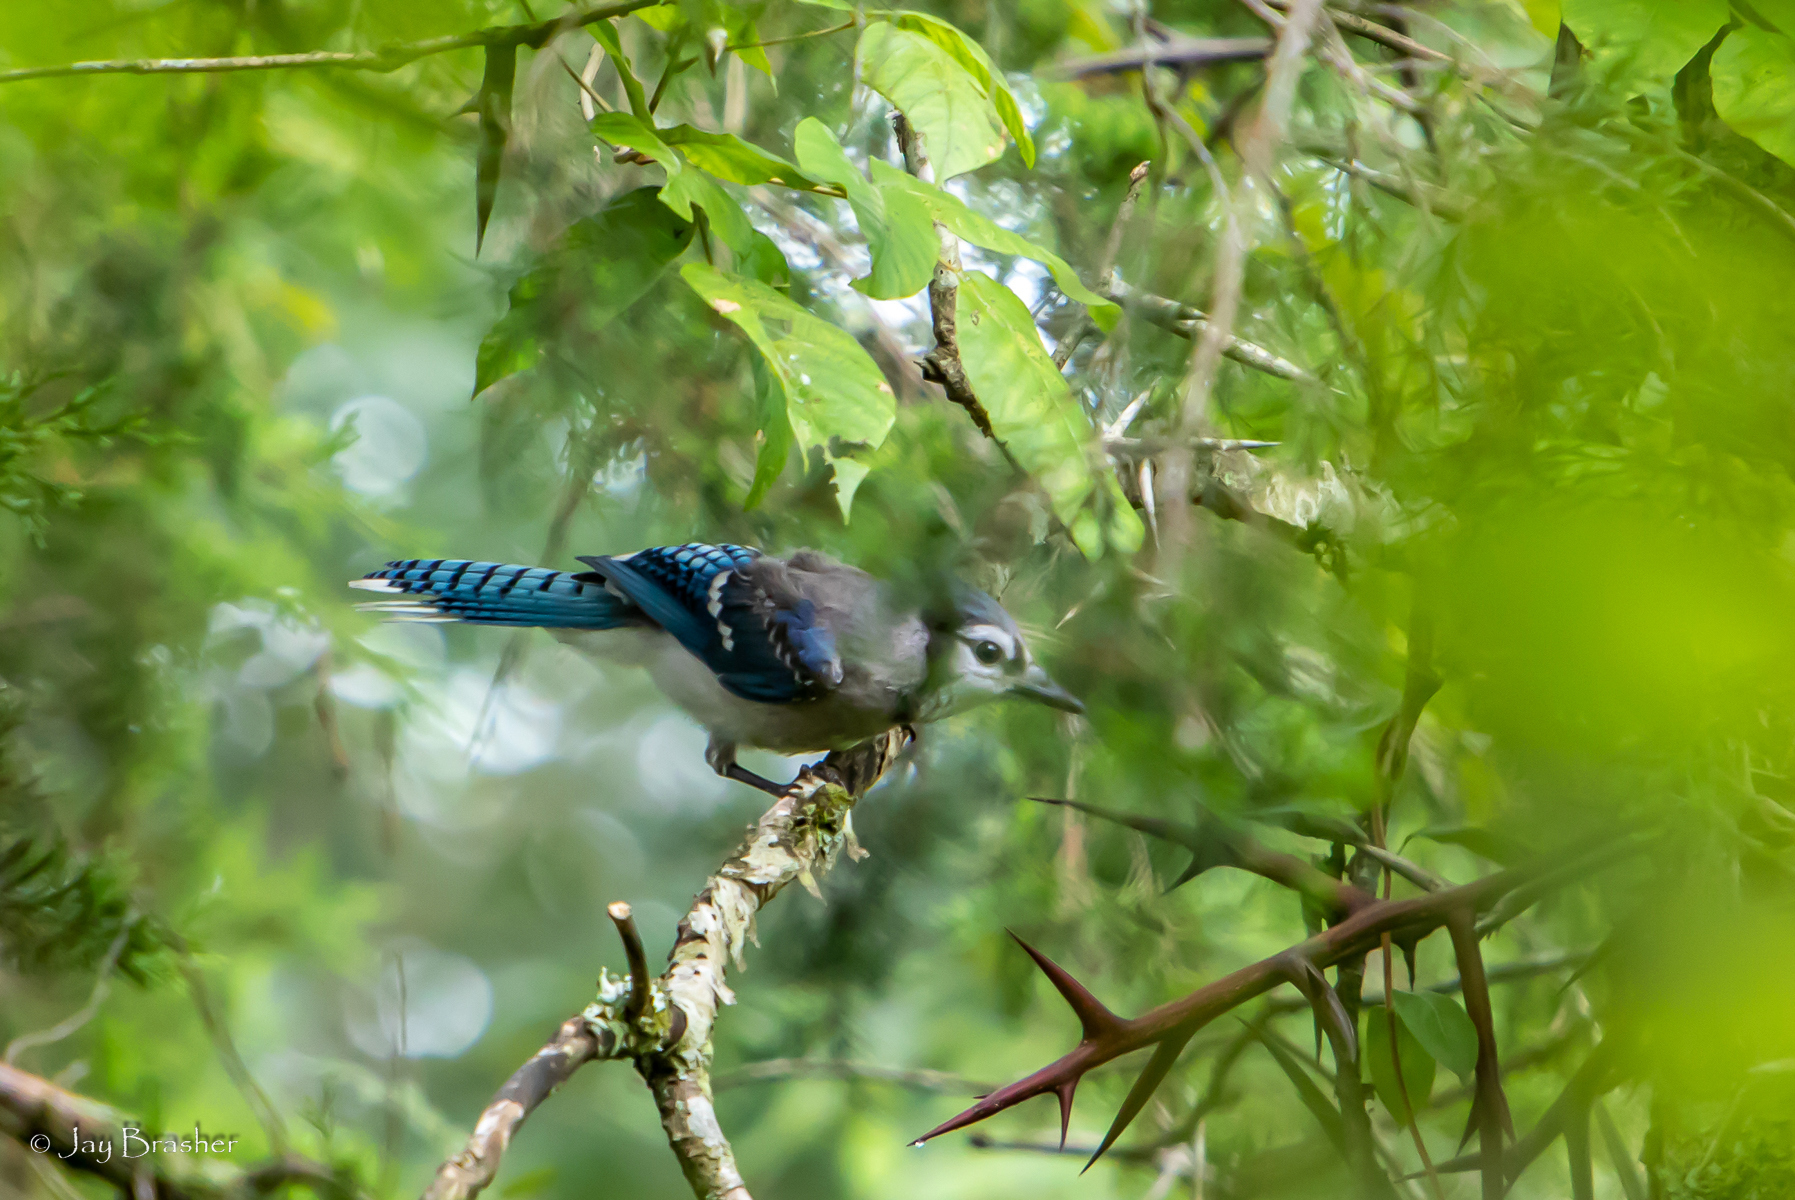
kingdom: Animalia
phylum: Chordata
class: Aves
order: Passeriformes
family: Corvidae
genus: Cyanocitta
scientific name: Cyanocitta cristata
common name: Blue jay
